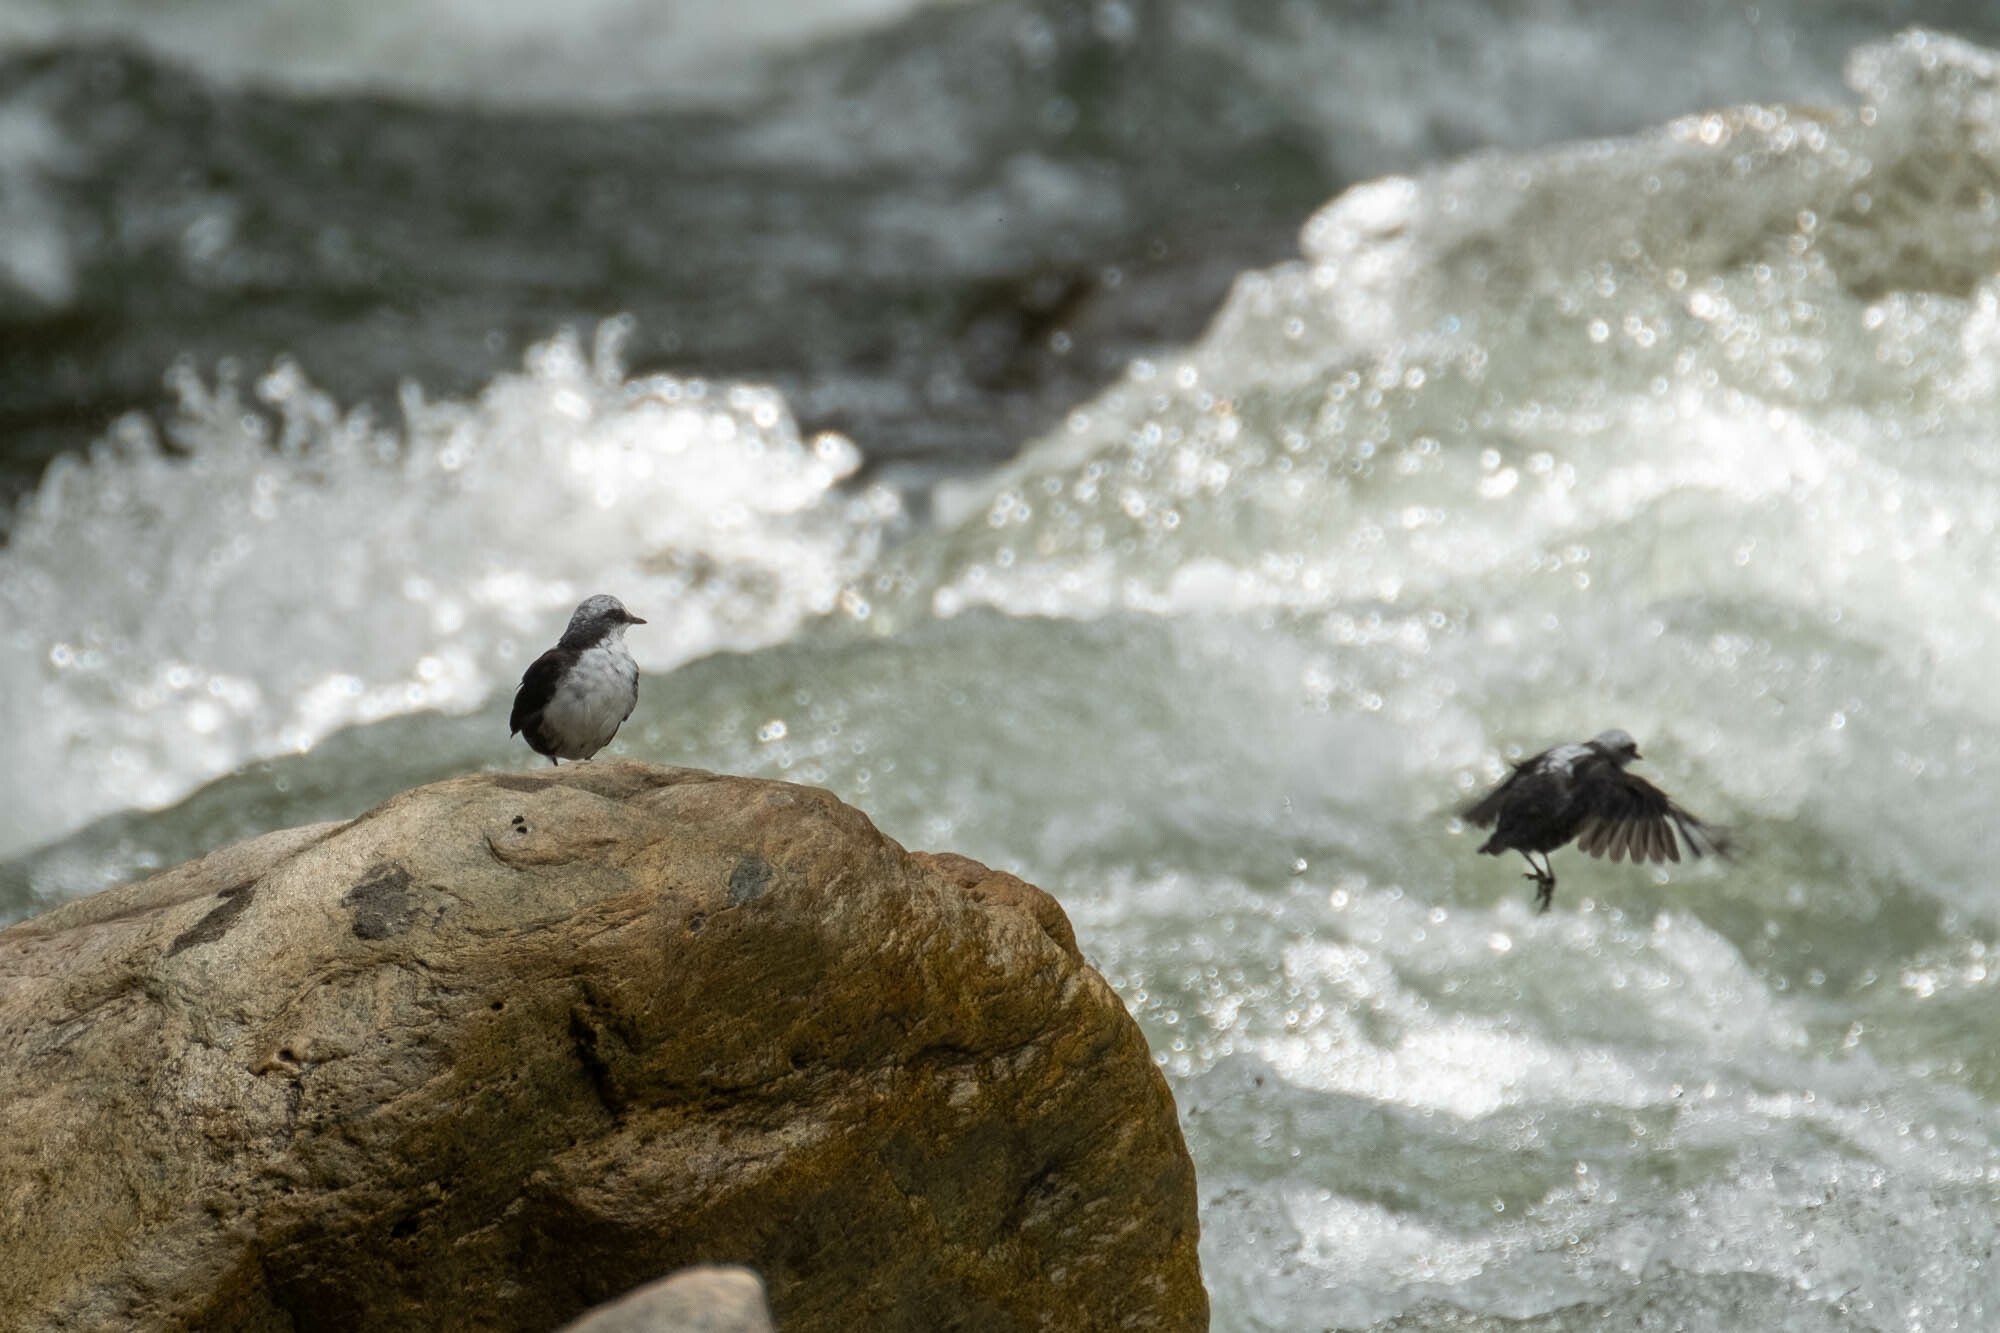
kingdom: Animalia
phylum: Chordata
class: Aves
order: Passeriformes
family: Cinclidae
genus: Cinclus
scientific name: Cinclus leucocephalus
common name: White-capped dipper
